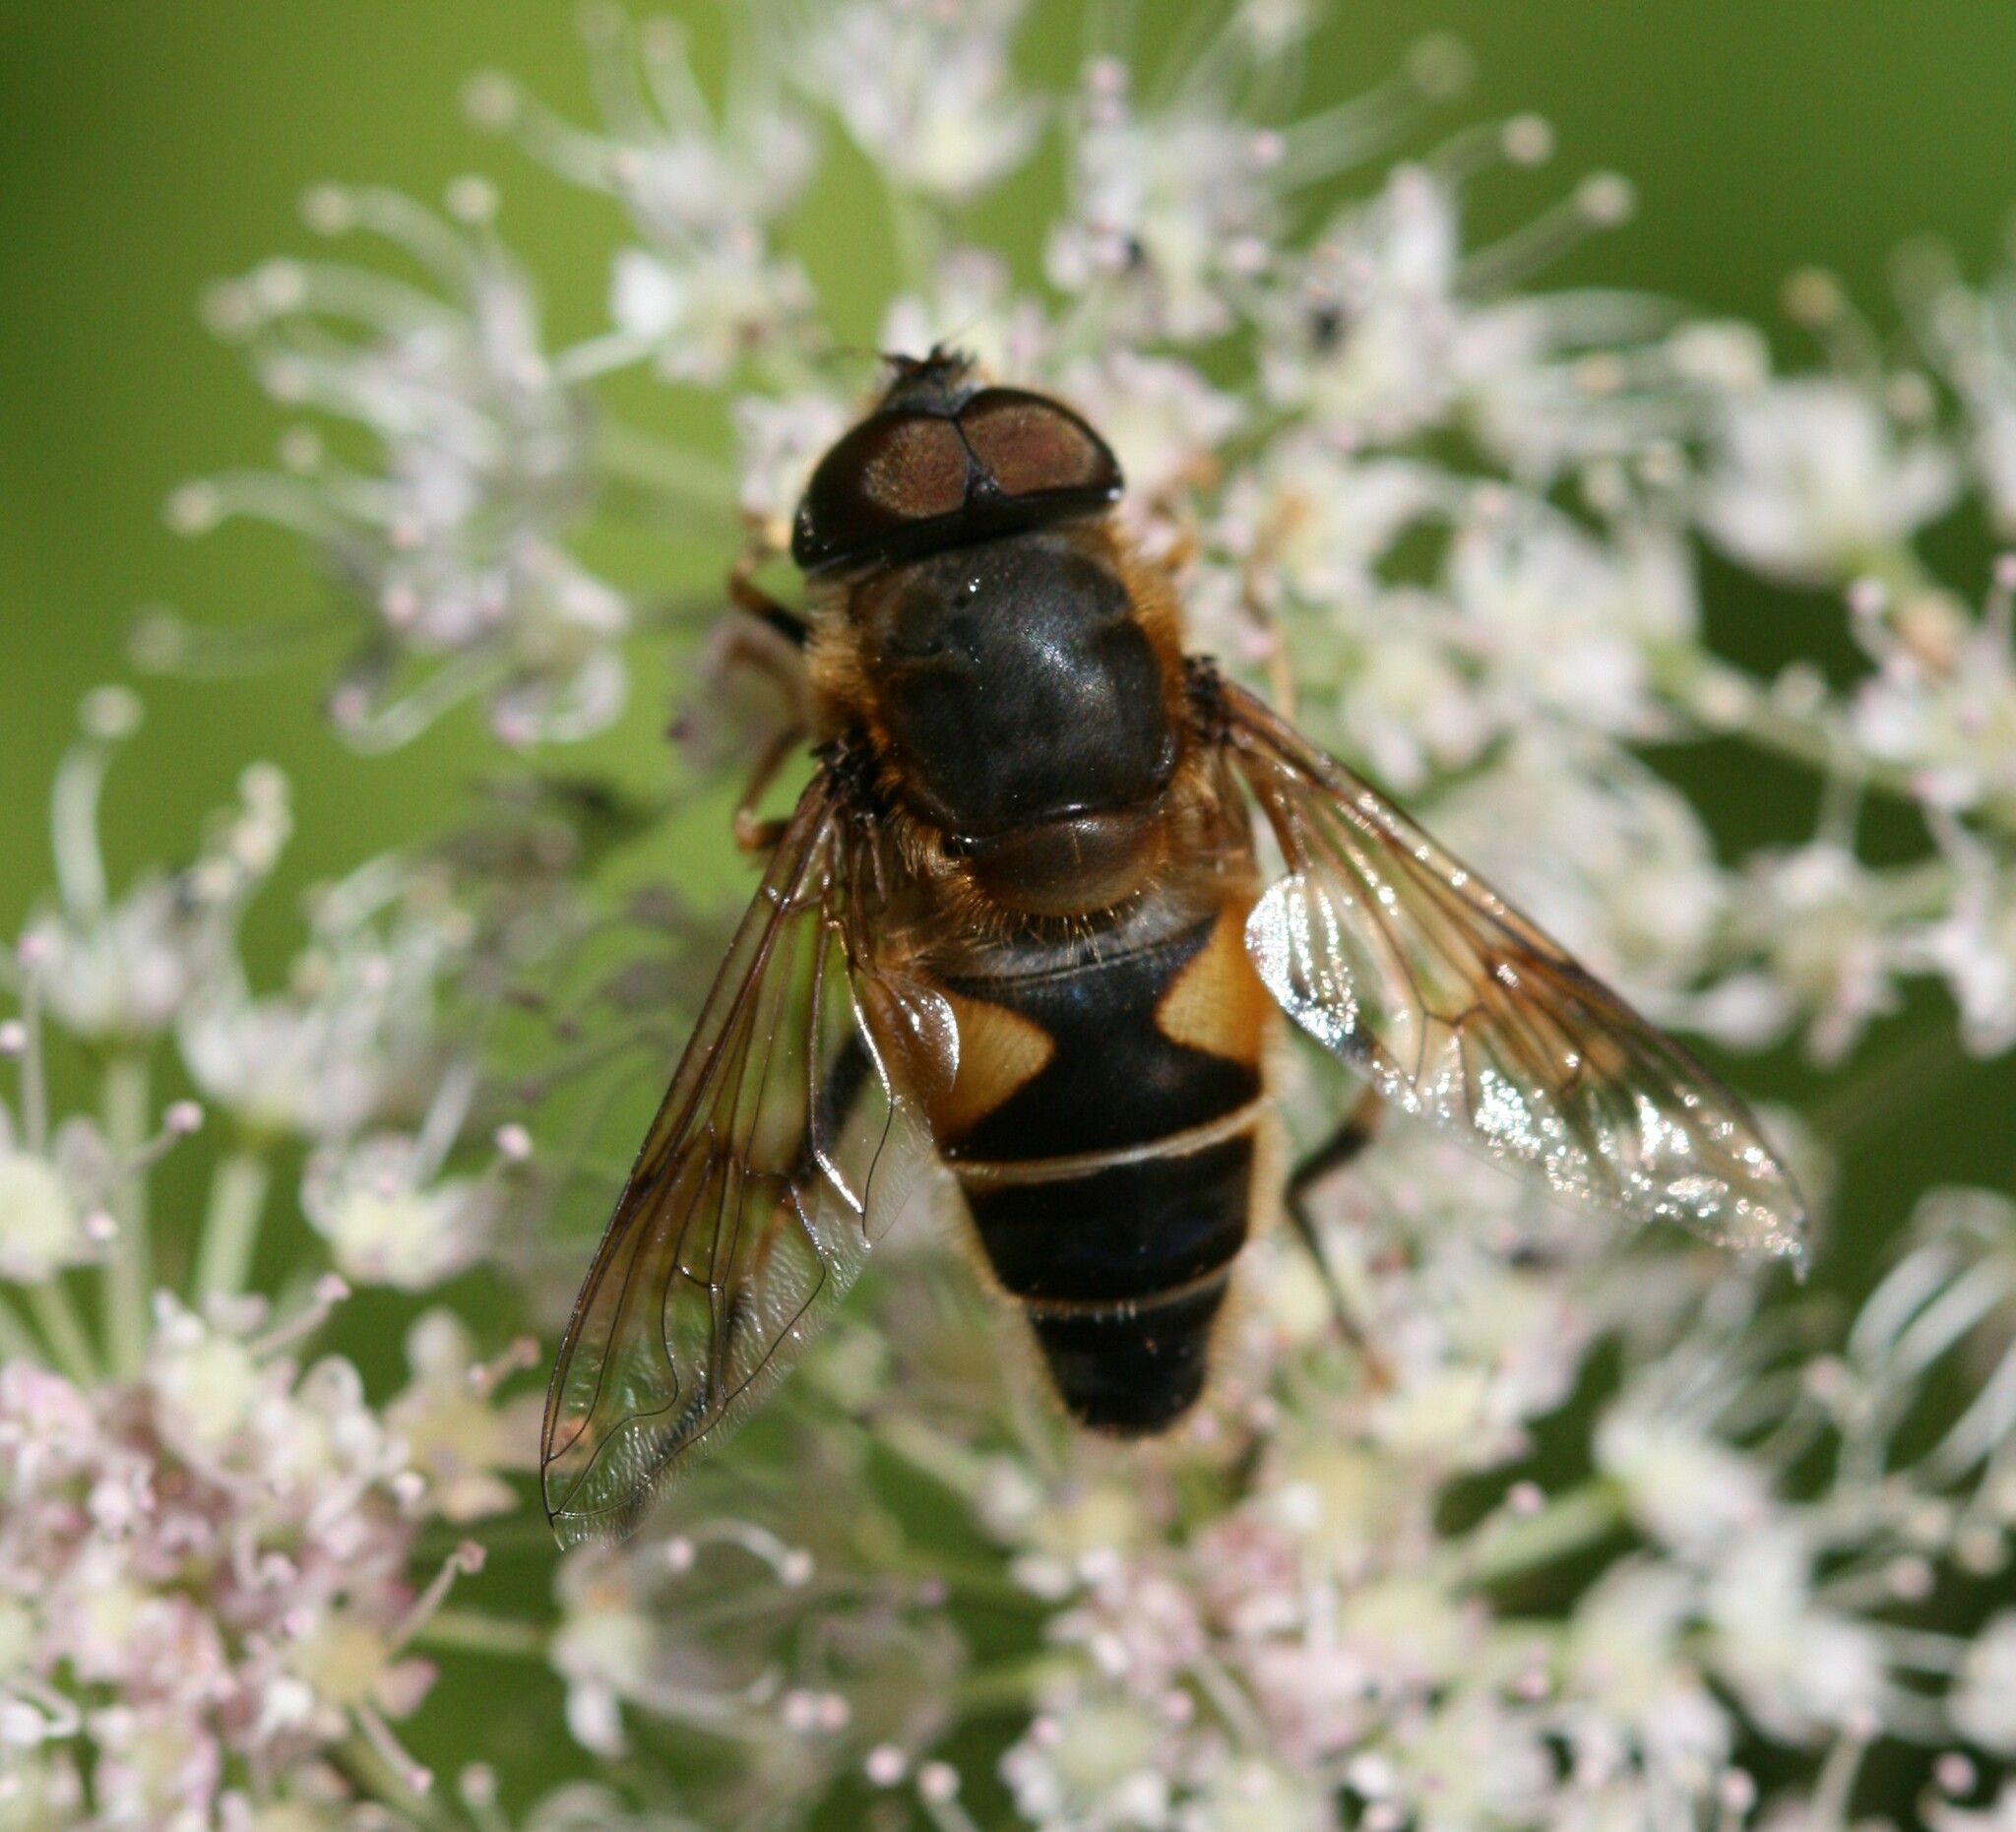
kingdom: Animalia
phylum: Arthropoda
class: Insecta
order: Diptera
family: Syrphidae
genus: Eristalis
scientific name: Eristalis pertinax
